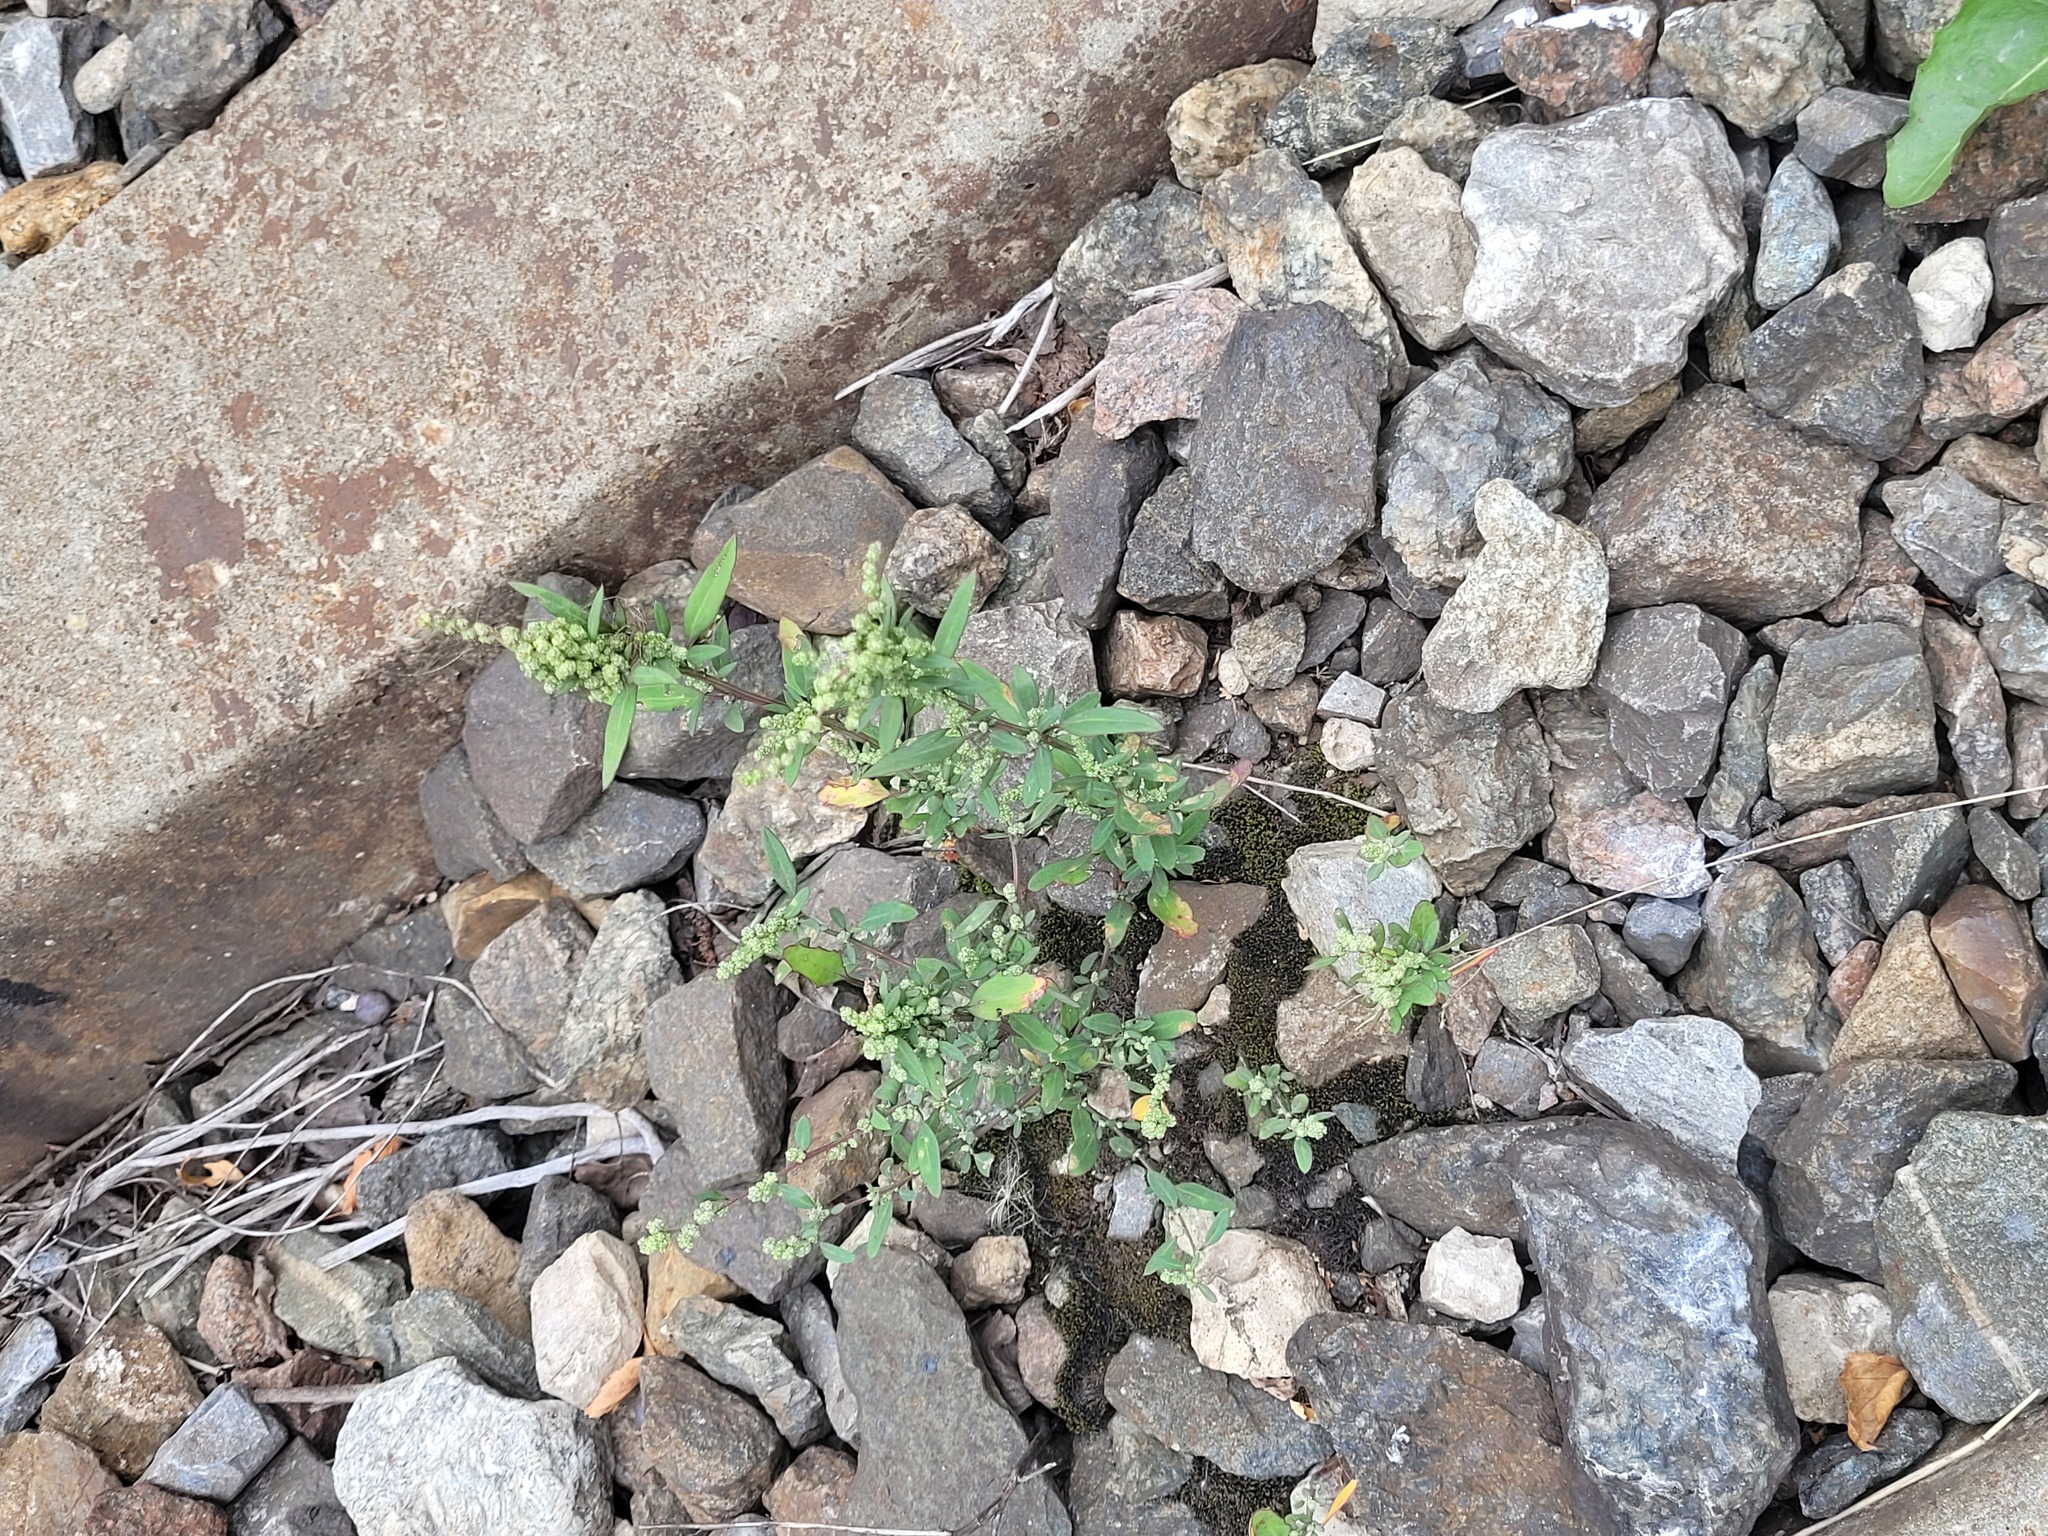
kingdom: Plantae
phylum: Tracheophyta
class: Magnoliopsida
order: Caryophyllales
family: Amaranthaceae
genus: Chenopodium
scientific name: Chenopodium betaceum
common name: Striped goosefoot
